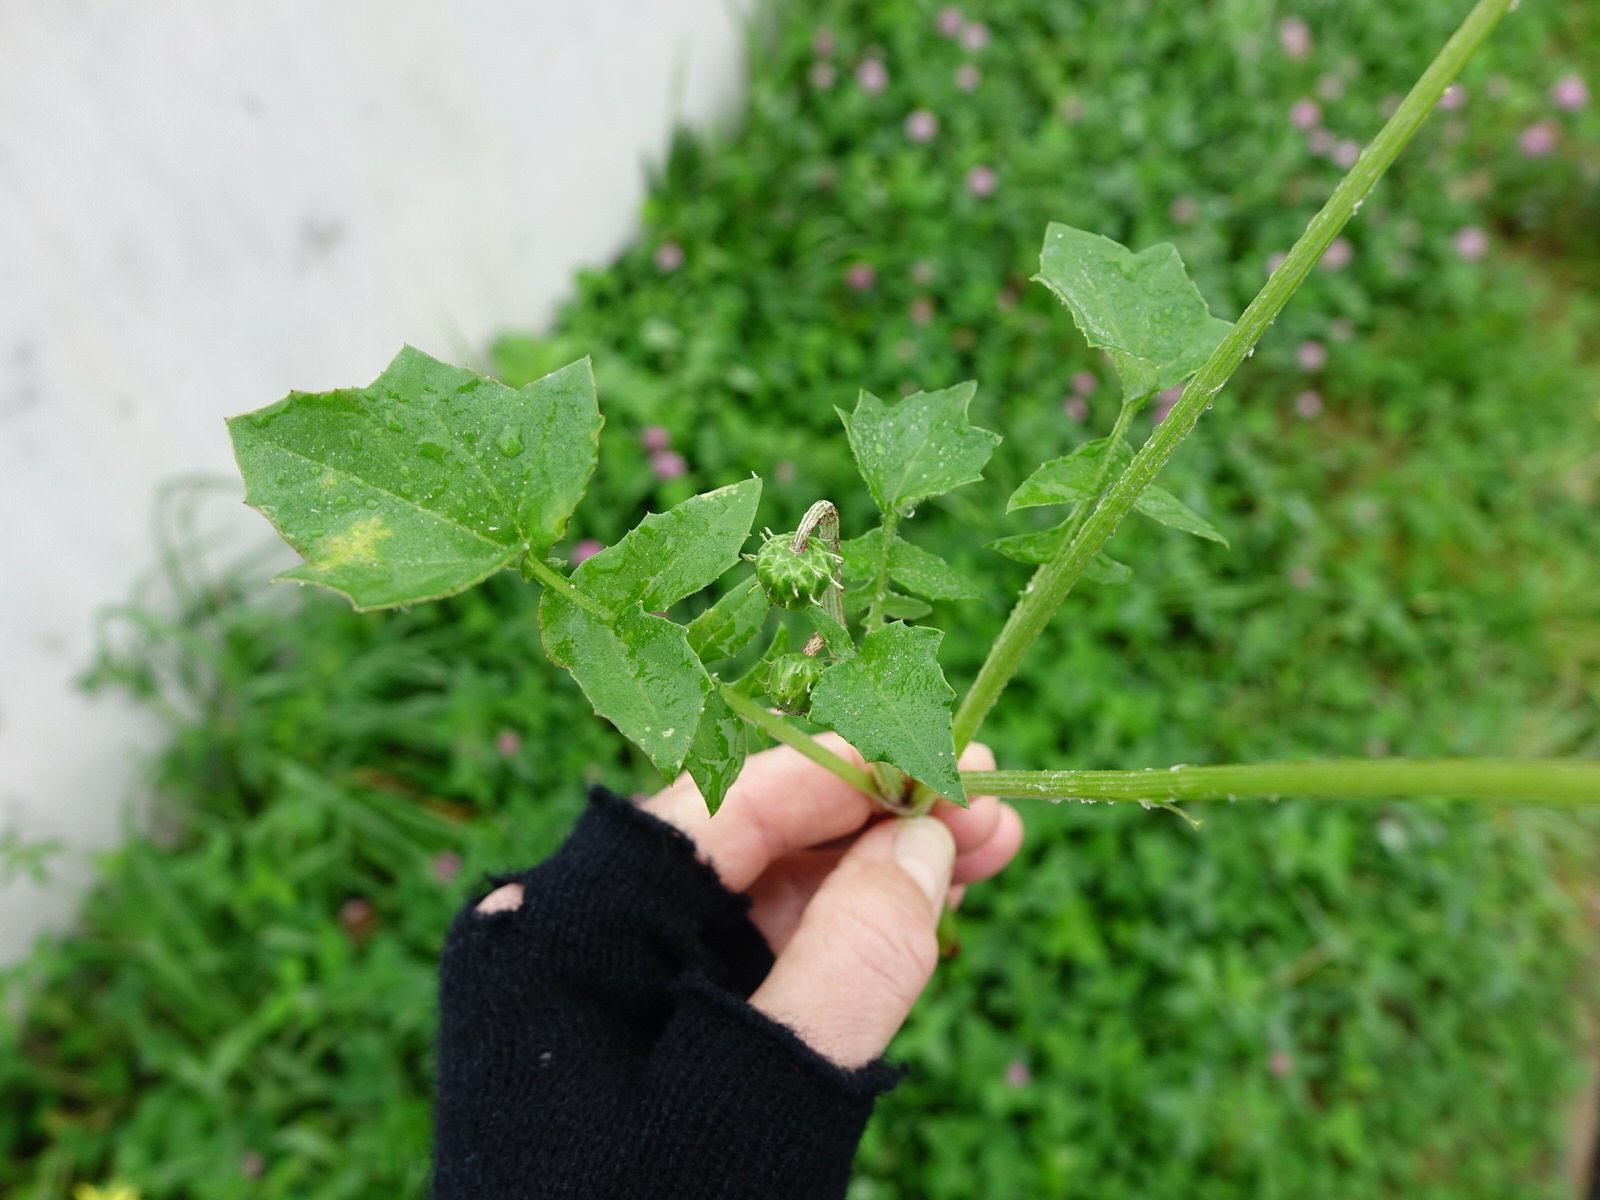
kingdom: Plantae
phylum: Tracheophyta
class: Magnoliopsida
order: Asterales
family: Asteraceae
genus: Arctotheca
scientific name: Arctotheca calendula
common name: Capeweed
